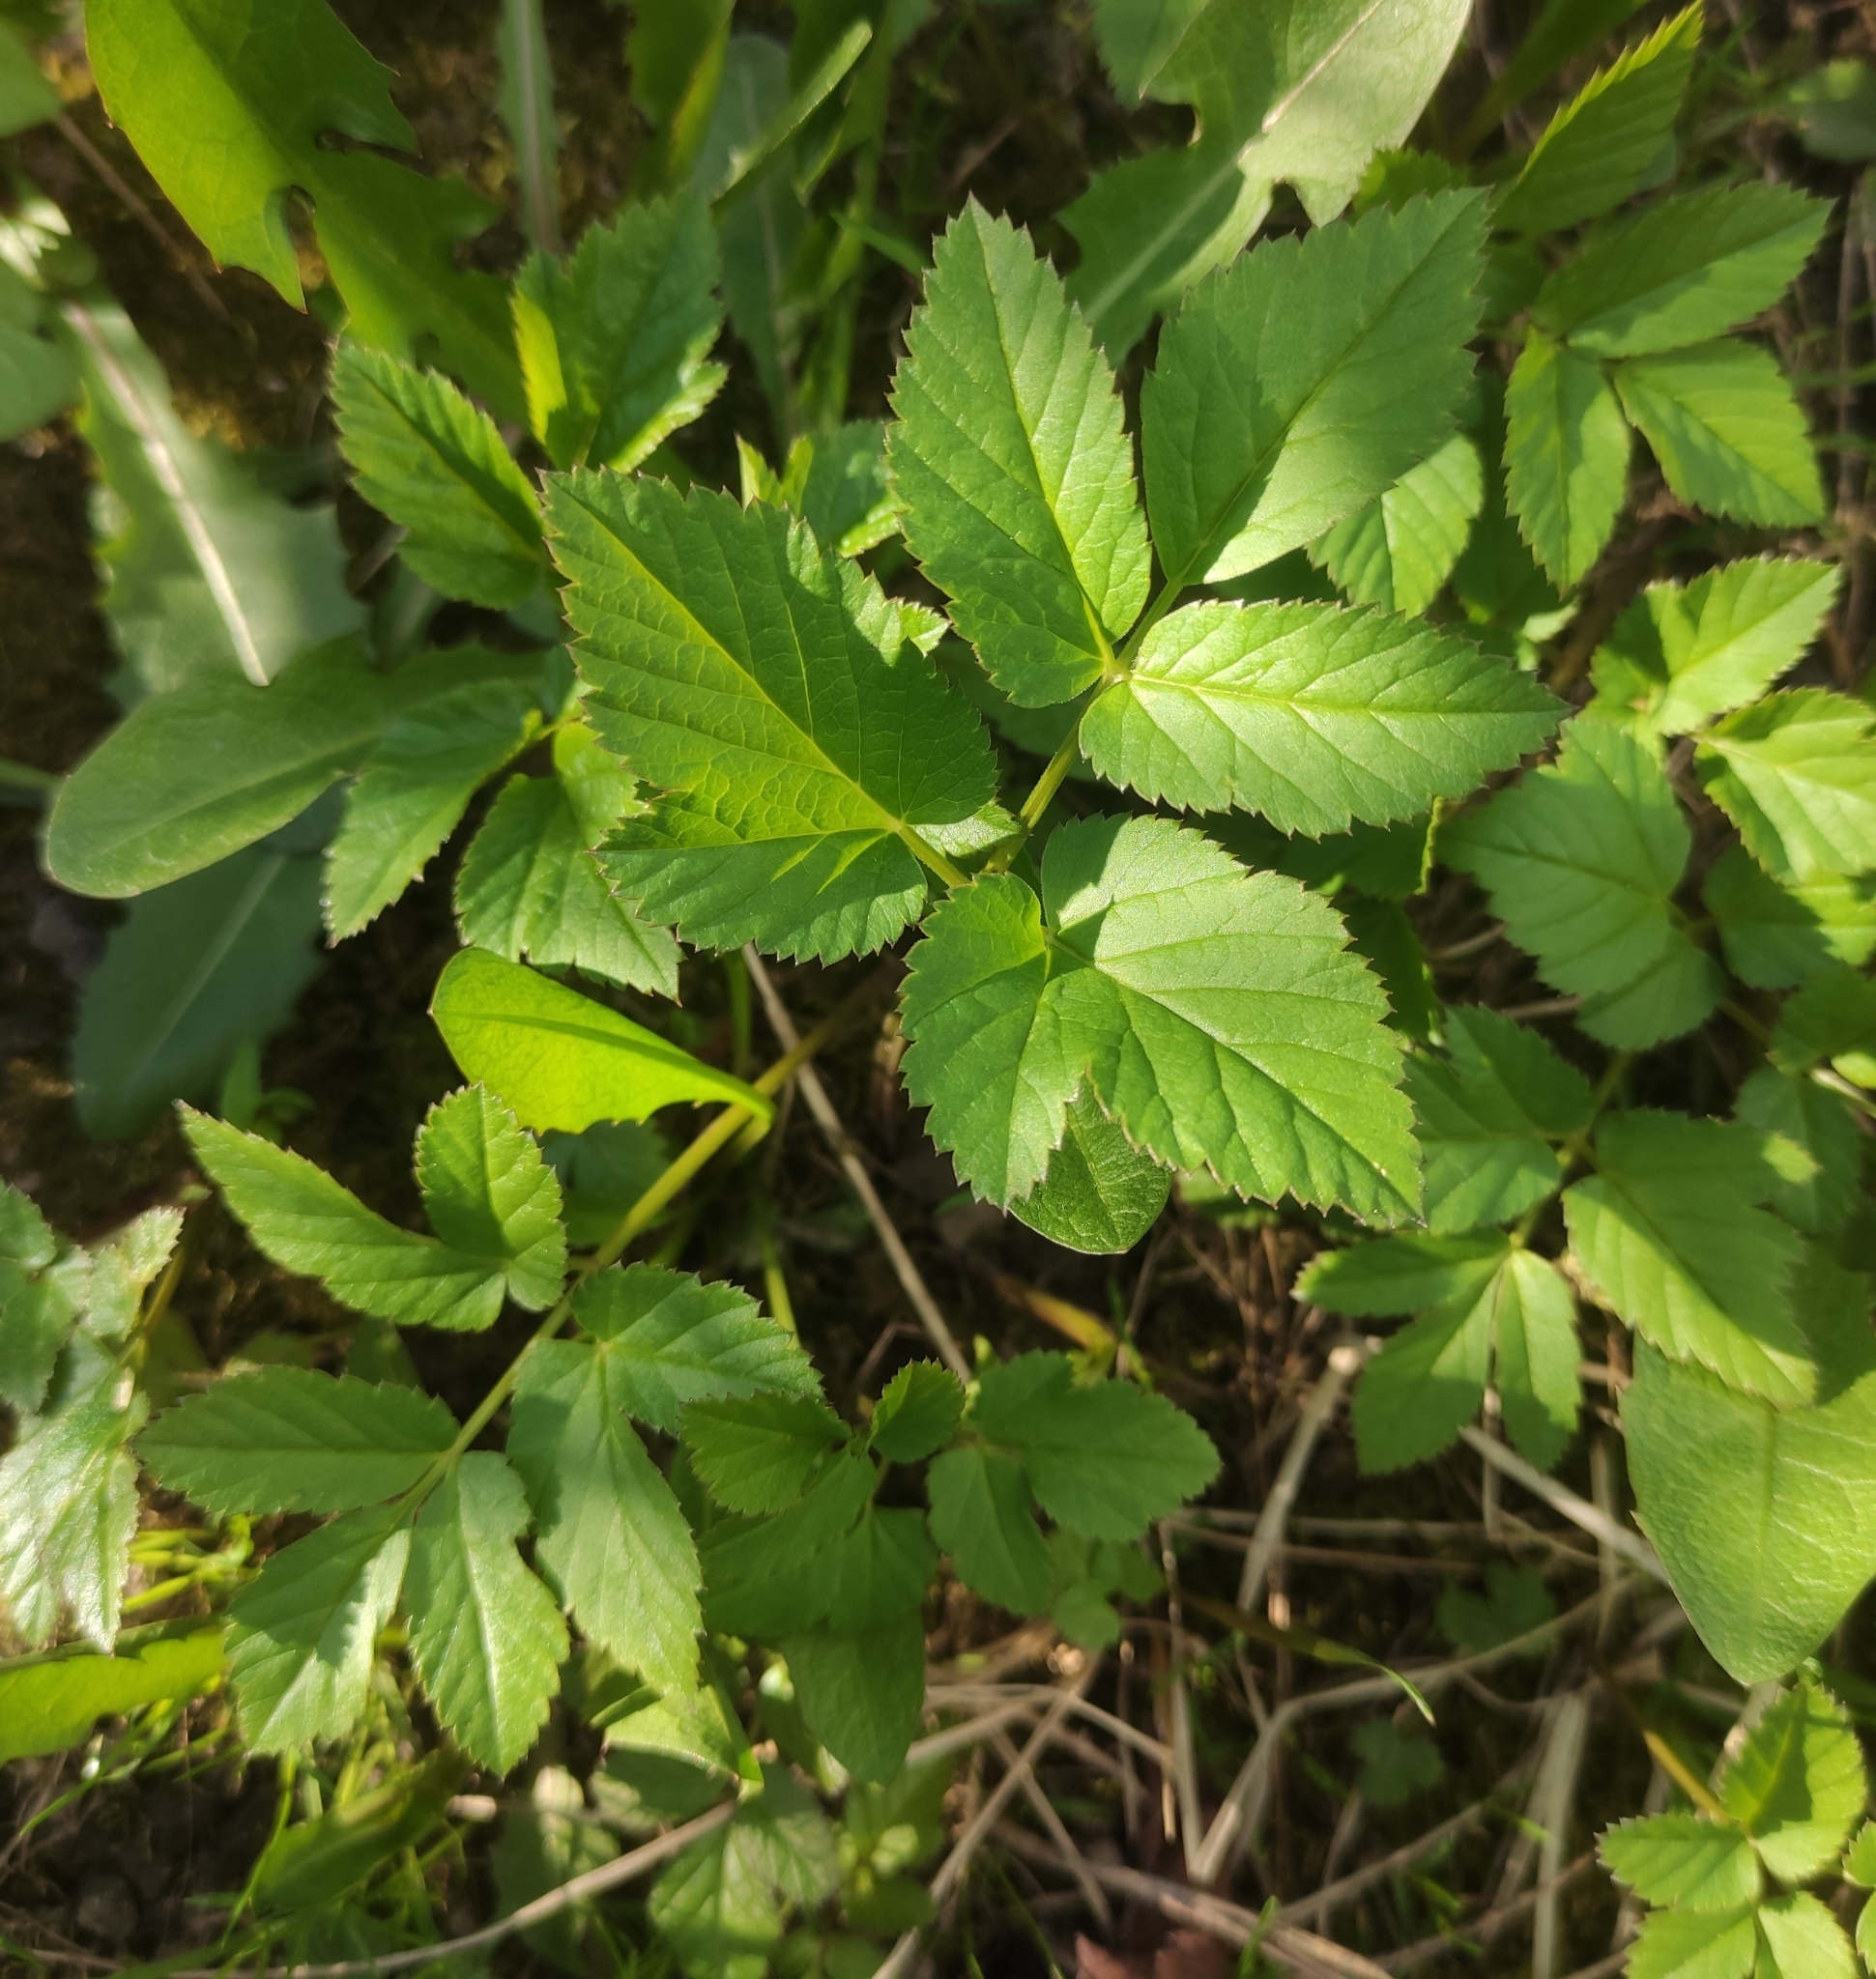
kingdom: Plantae
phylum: Tracheophyta
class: Magnoliopsida
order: Apiales
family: Apiaceae
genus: Aegopodium
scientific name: Aegopodium podagraria
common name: Ground-elder
